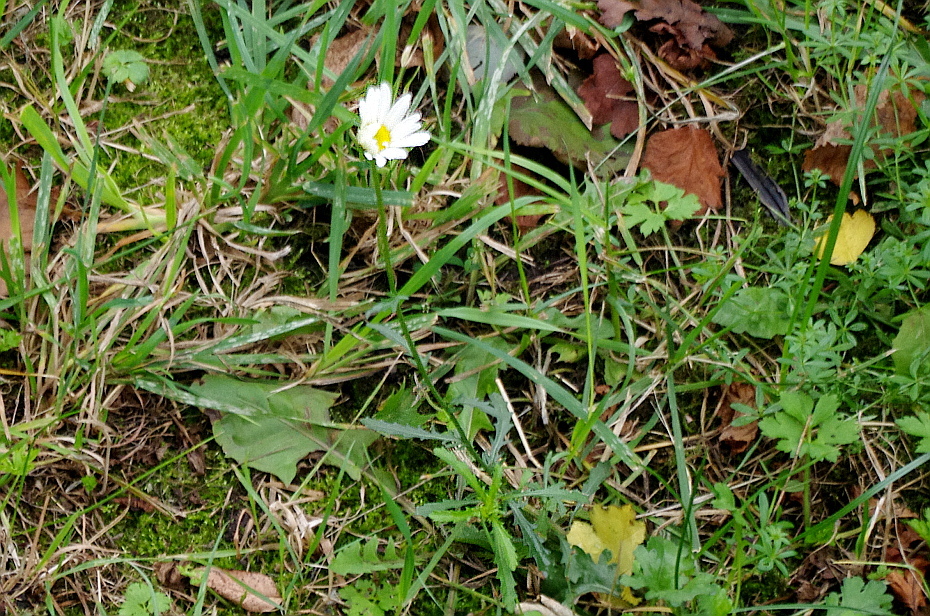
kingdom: Plantae
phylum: Tracheophyta
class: Magnoliopsida
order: Asterales
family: Asteraceae
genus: Leucanthemum
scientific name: Leucanthemum vulgare
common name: Oxeye daisy
